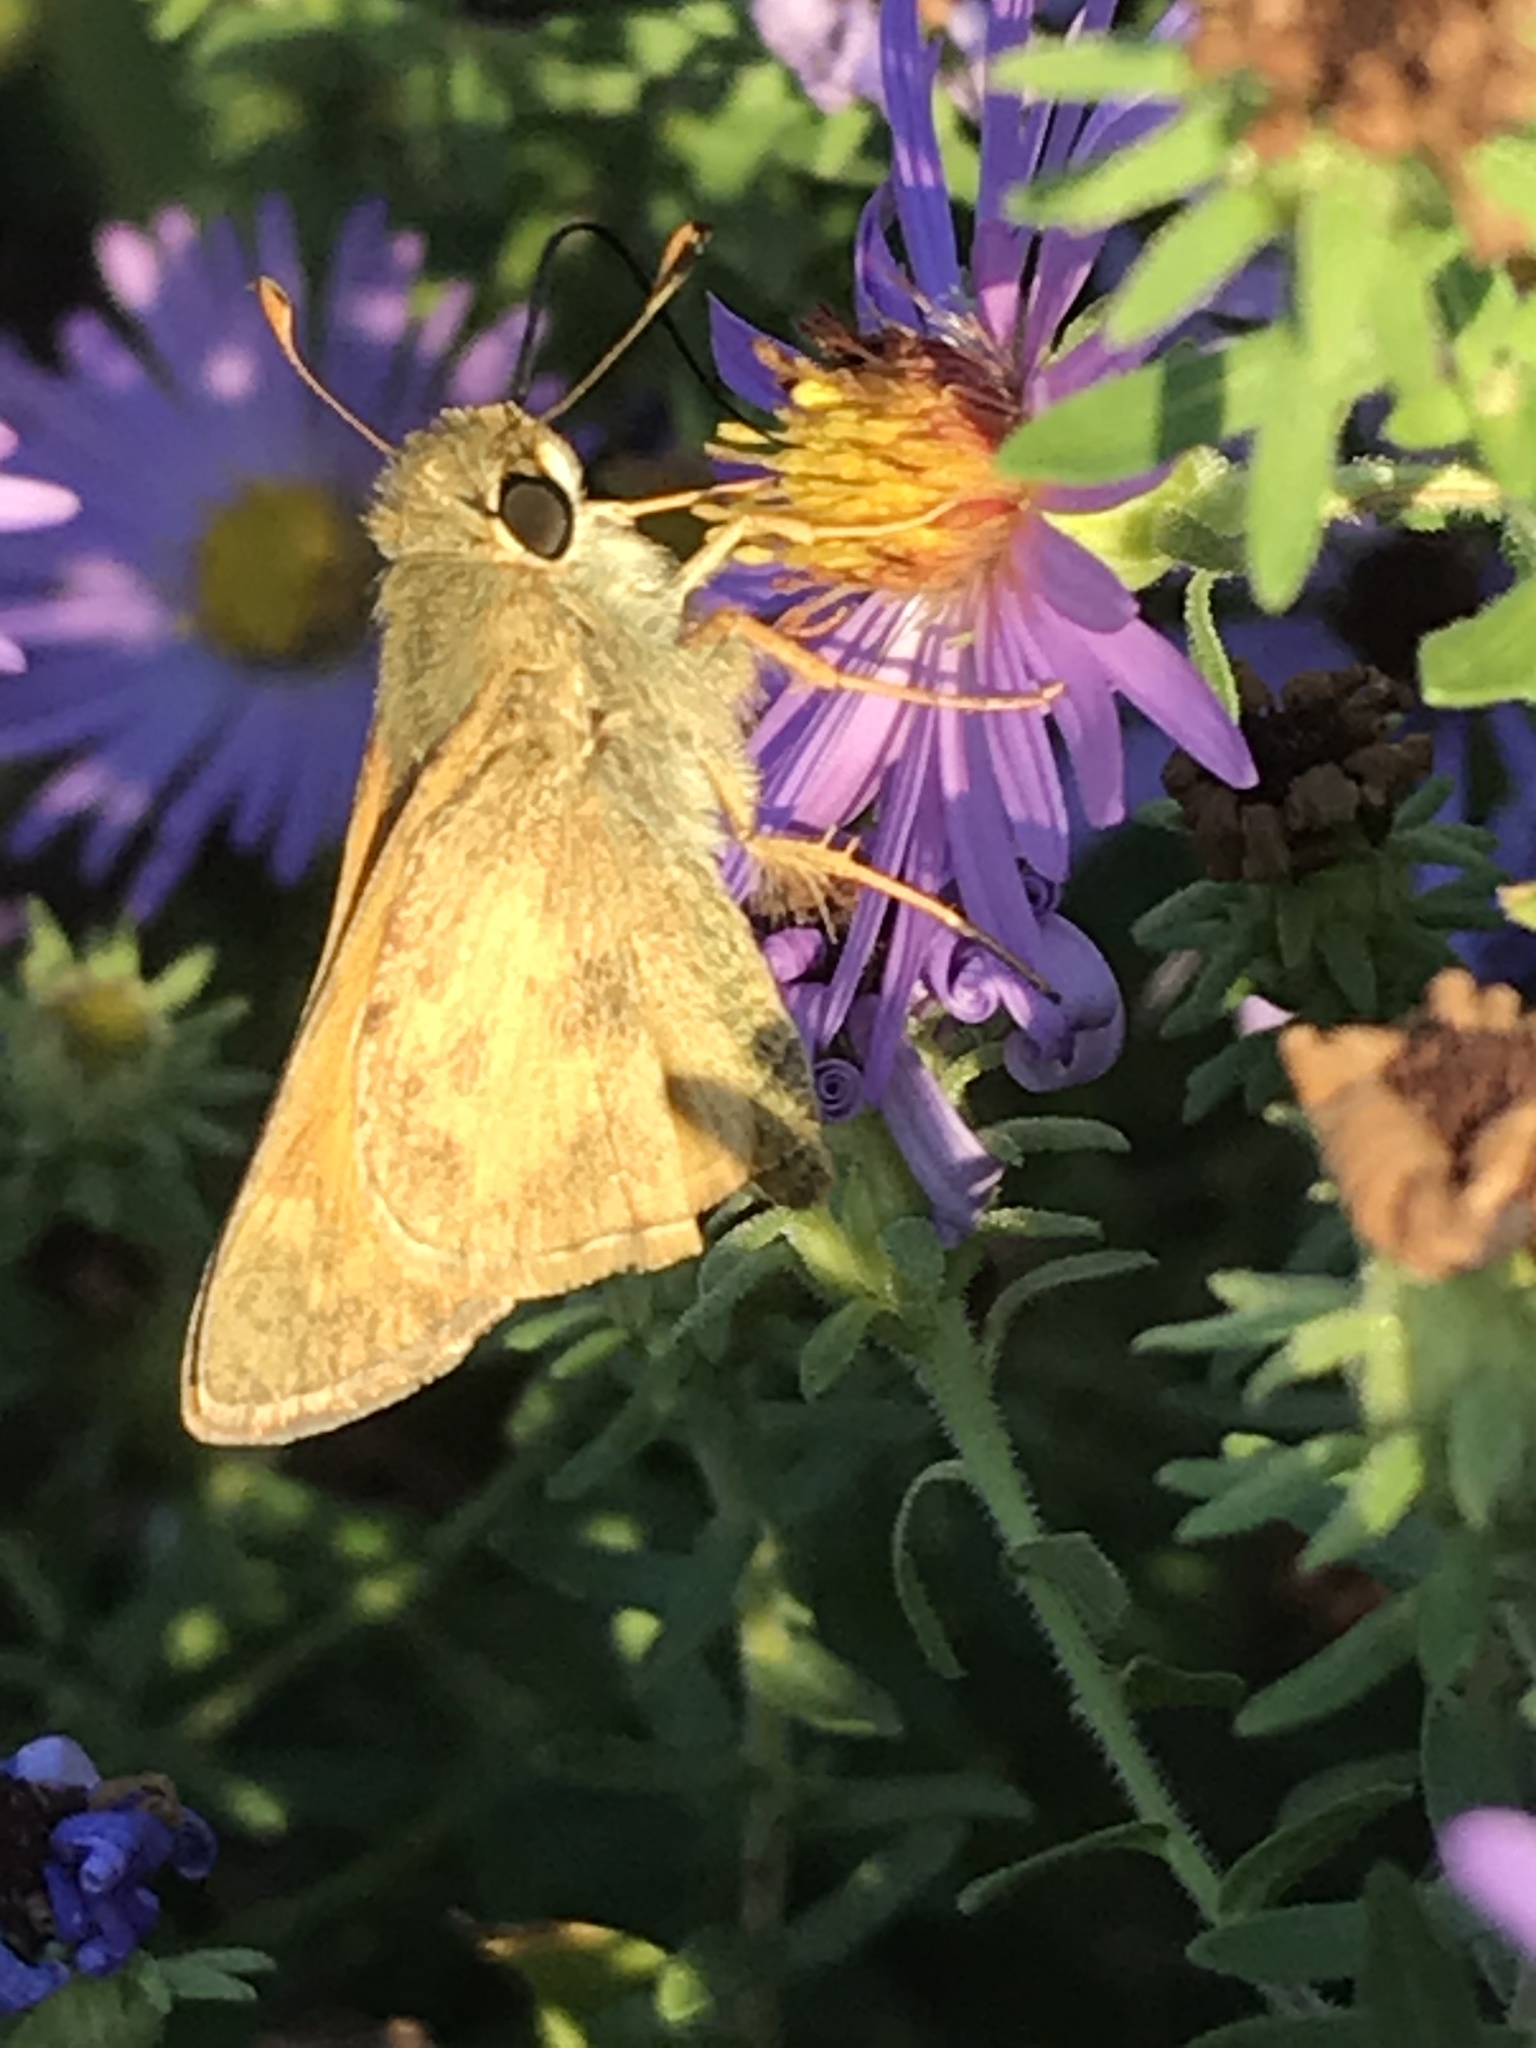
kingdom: Animalia
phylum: Arthropoda
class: Insecta
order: Lepidoptera
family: Hesperiidae
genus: Atalopedes
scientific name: Atalopedes
